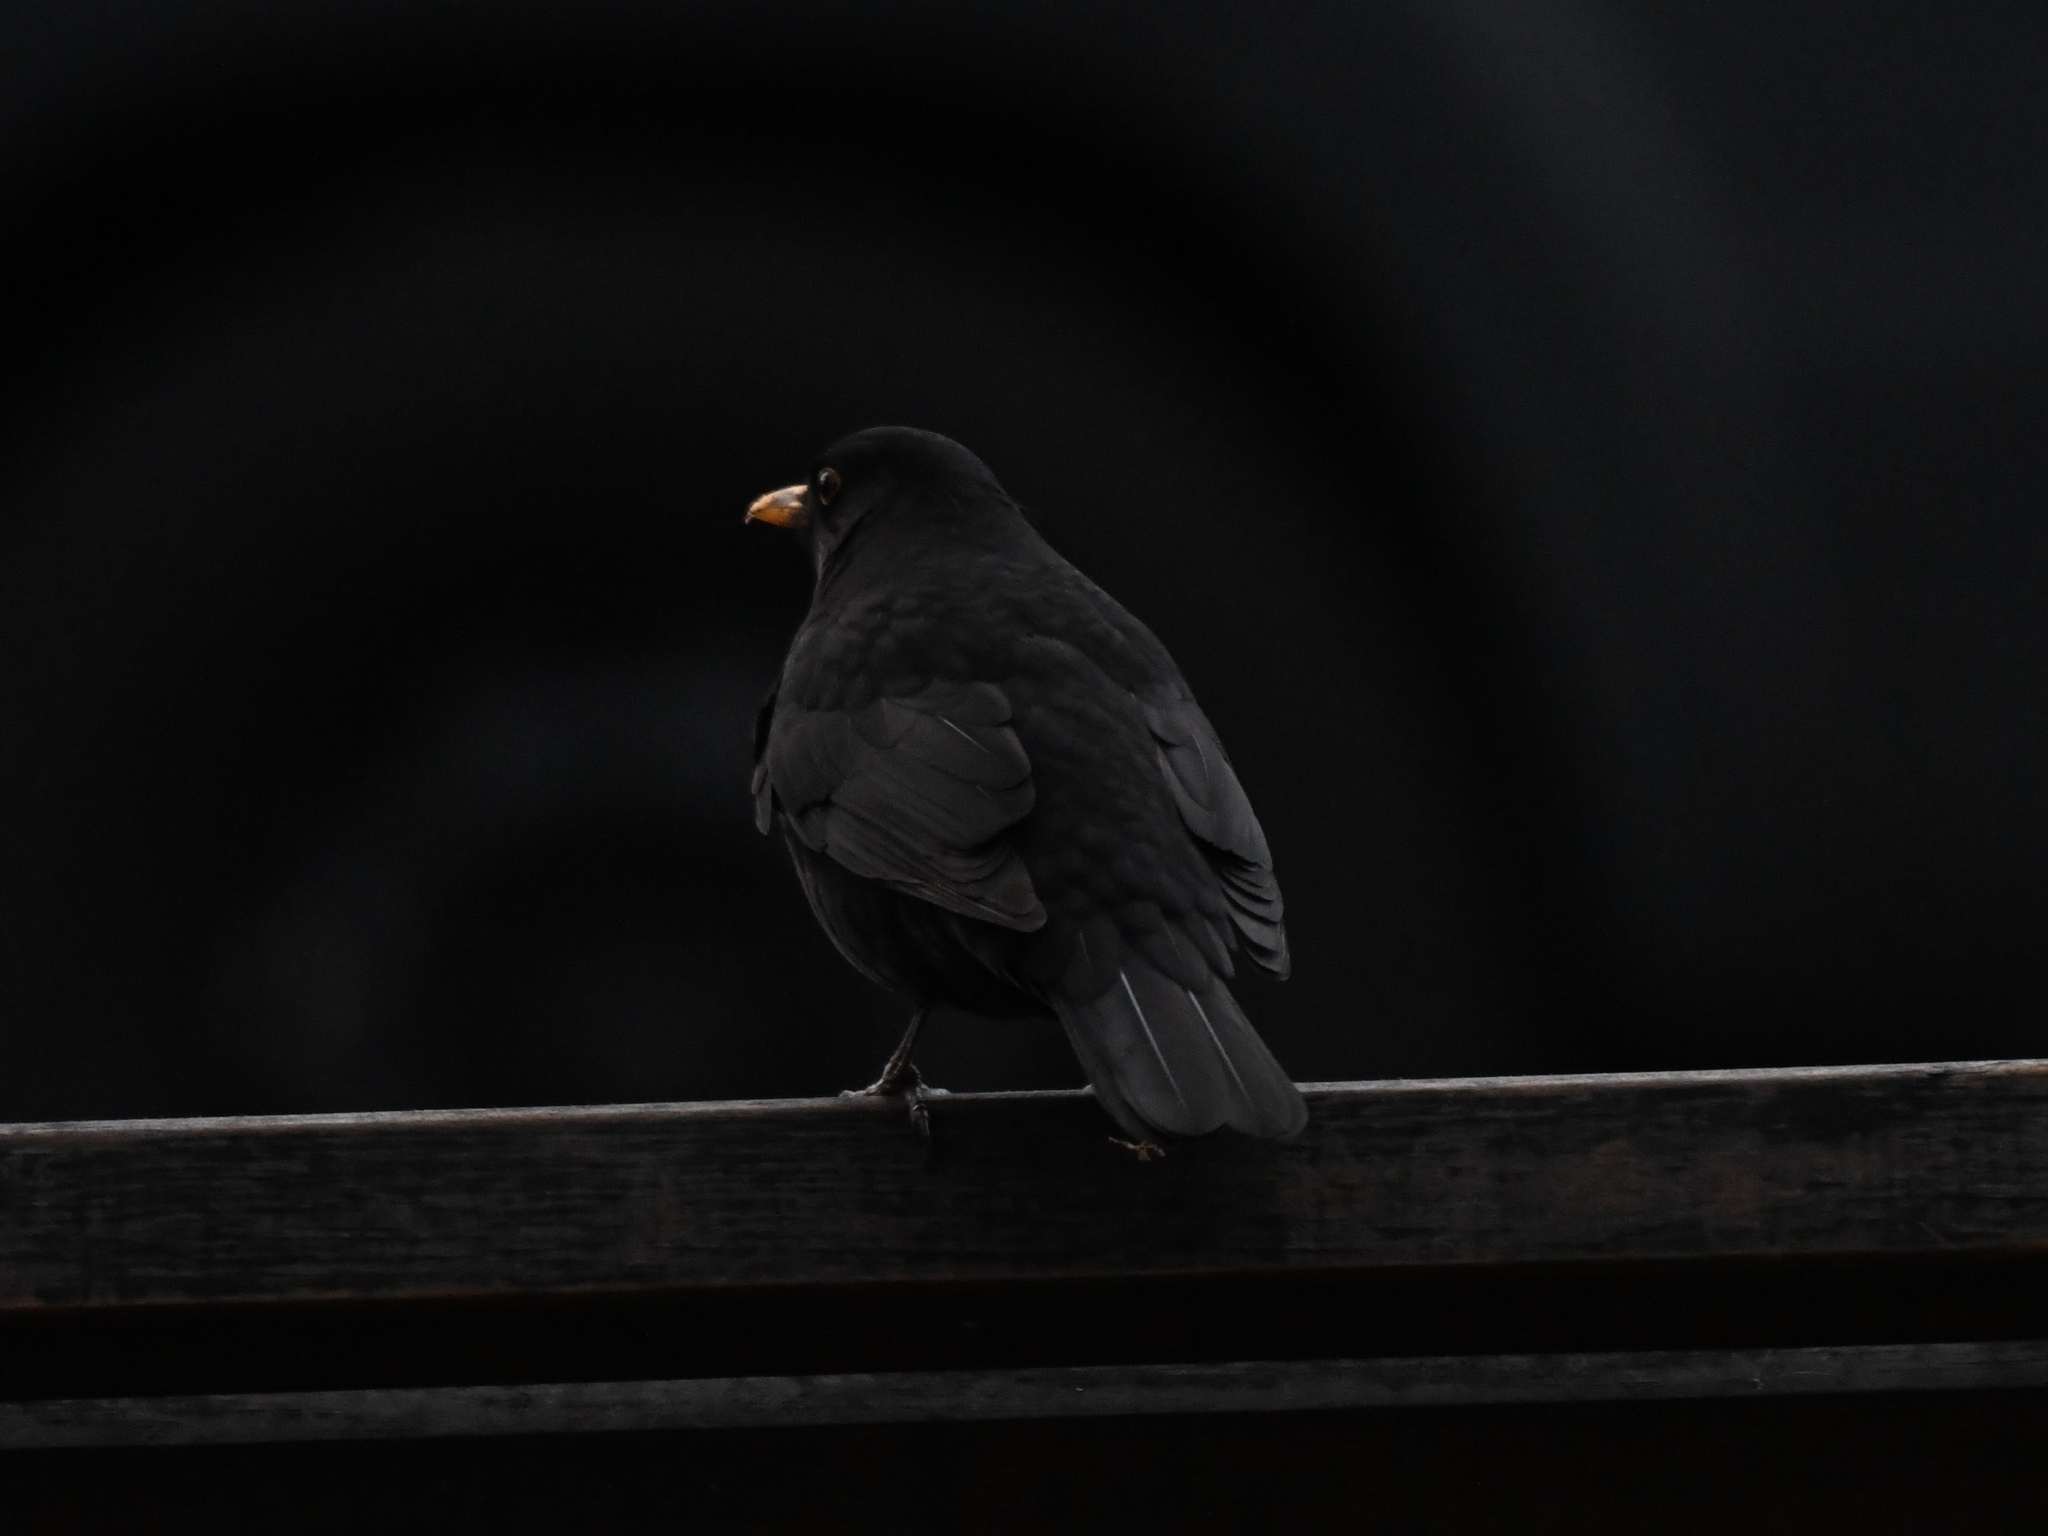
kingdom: Animalia
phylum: Chordata
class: Aves
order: Passeriformes
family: Turdidae
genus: Turdus
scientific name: Turdus merula
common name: Common blackbird
